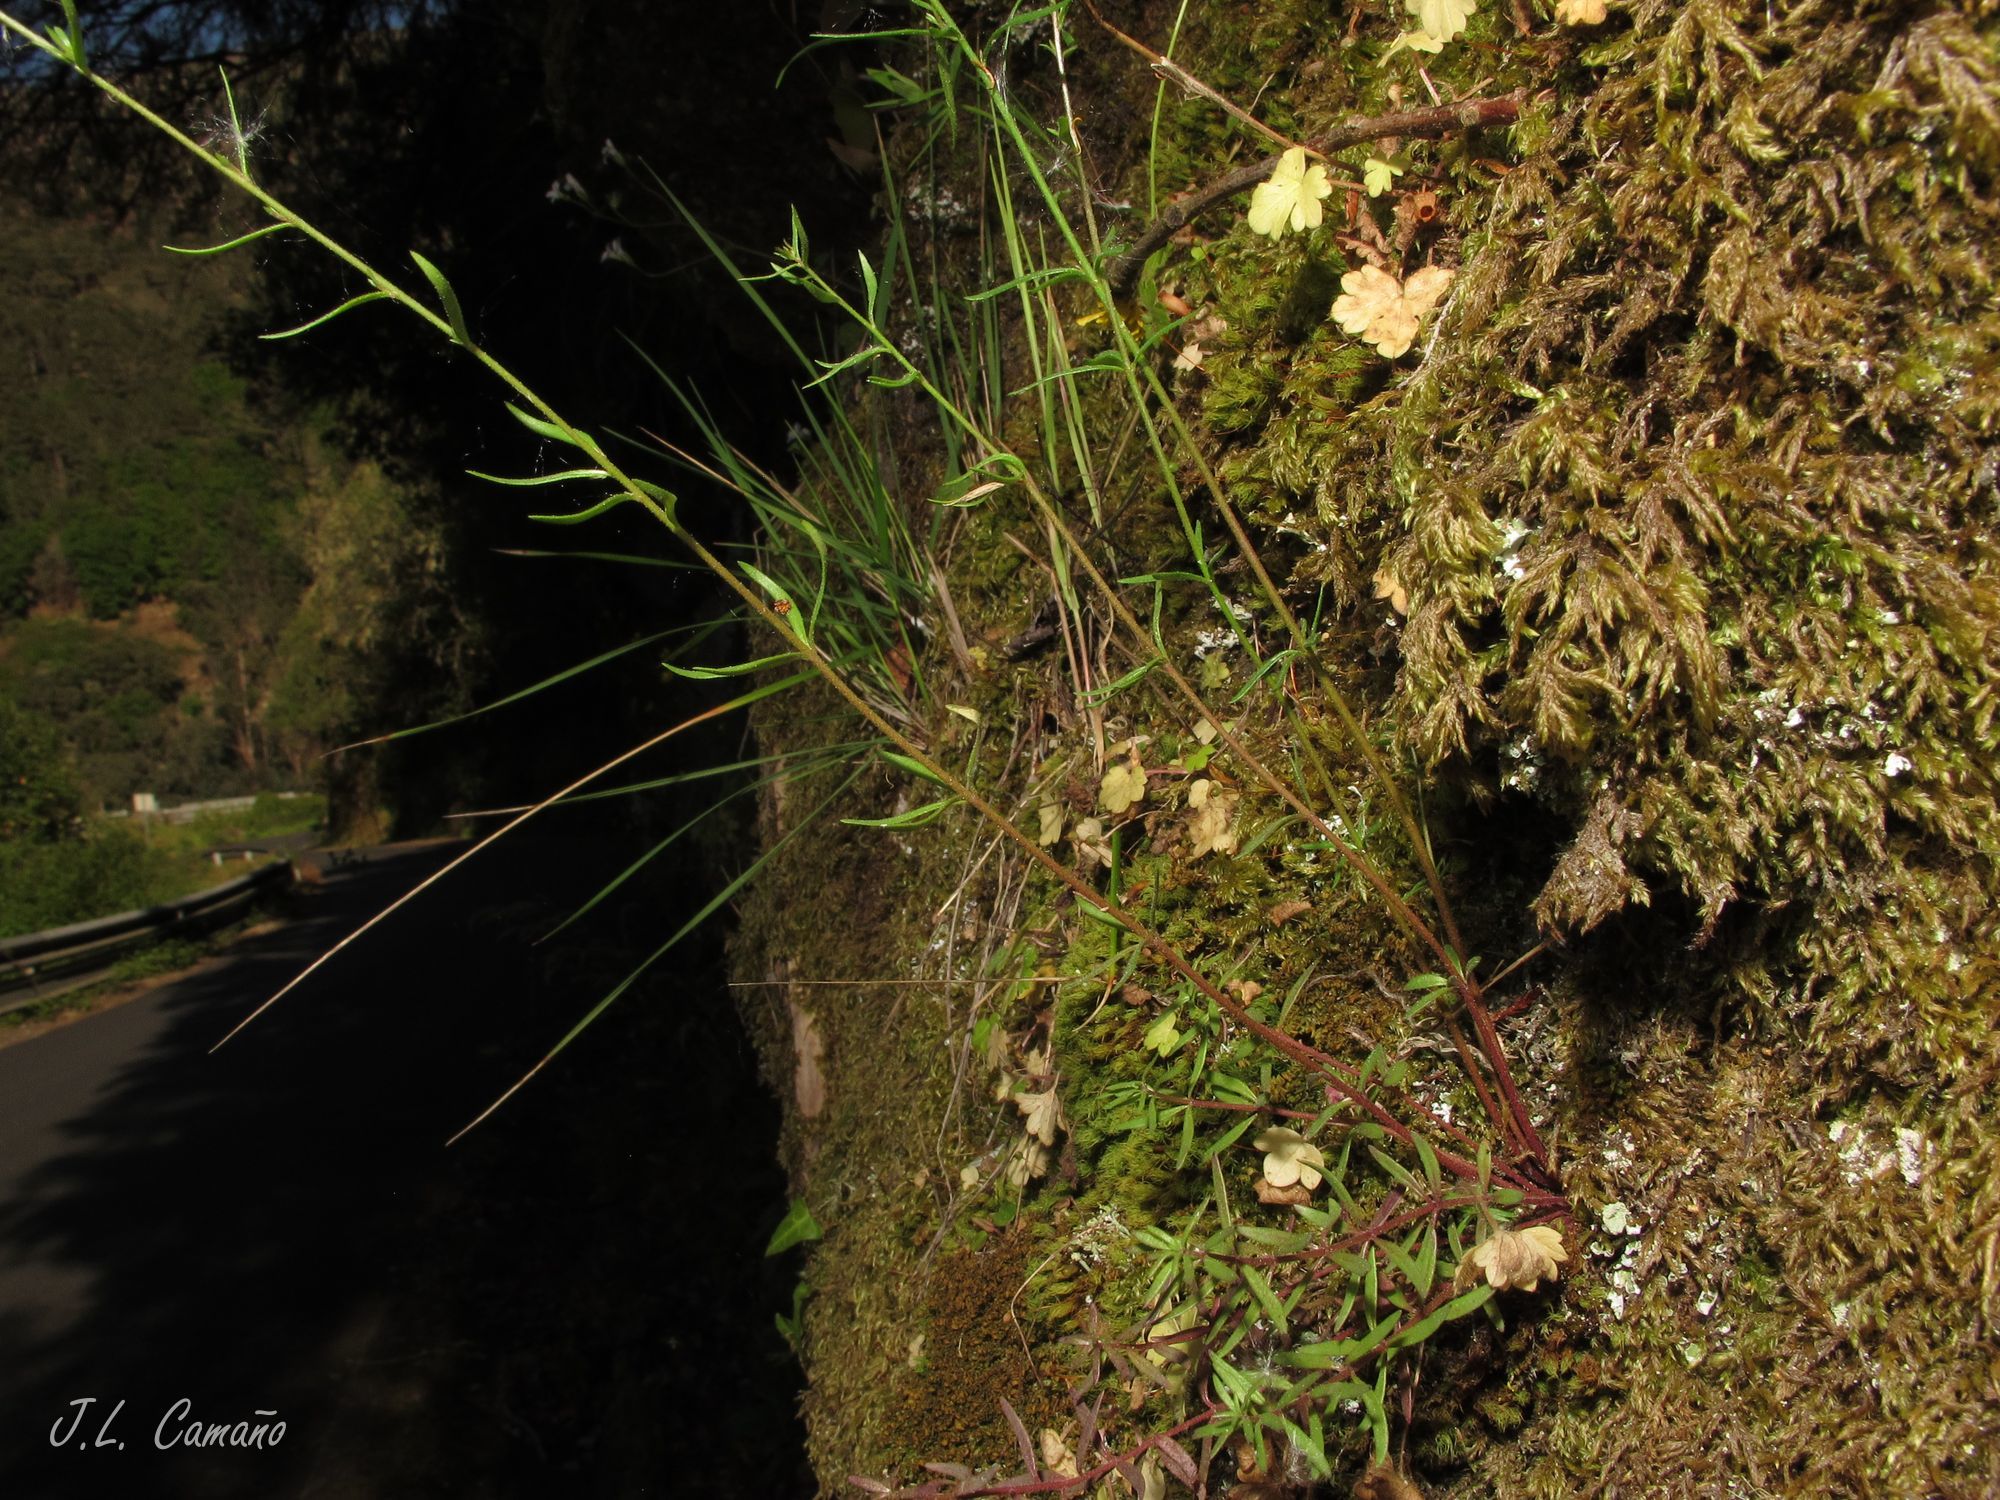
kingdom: Plantae
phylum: Tracheophyta
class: Magnoliopsida
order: Lamiales
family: Plantaginaceae
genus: Linaria
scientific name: Linaria saxatilis
